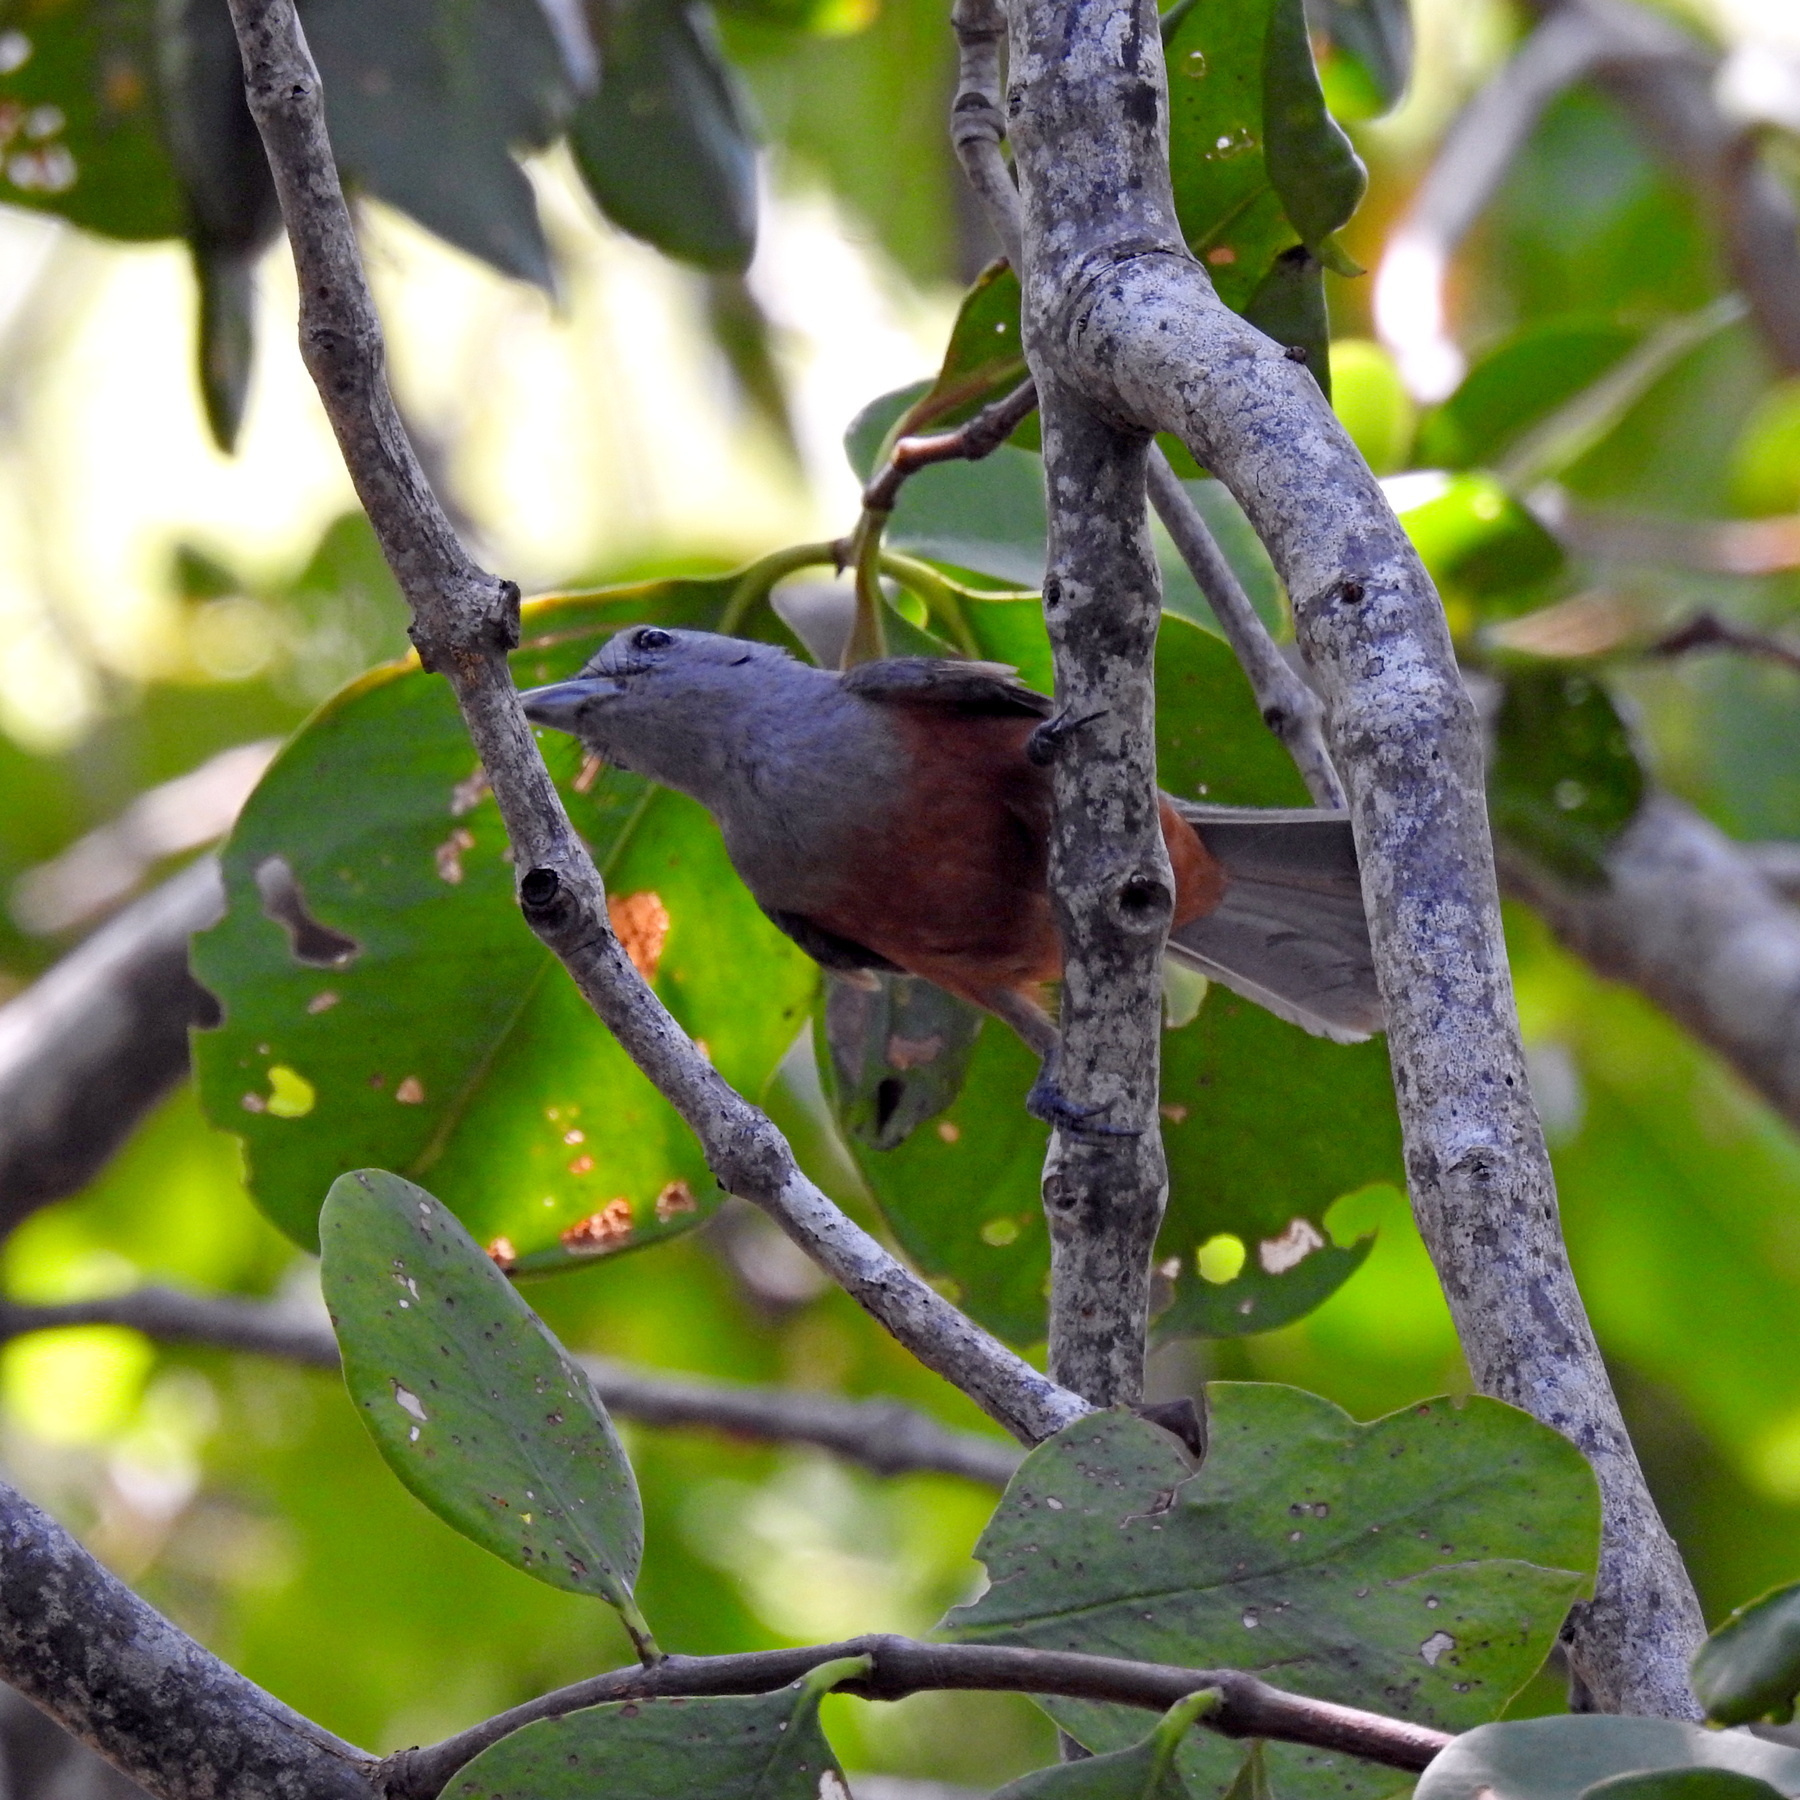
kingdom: Animalia
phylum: Chordata
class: Aves
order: Passeriformes
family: Monarchidae
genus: Monarcha
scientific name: Monarcha cinerascens
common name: Island monarch
